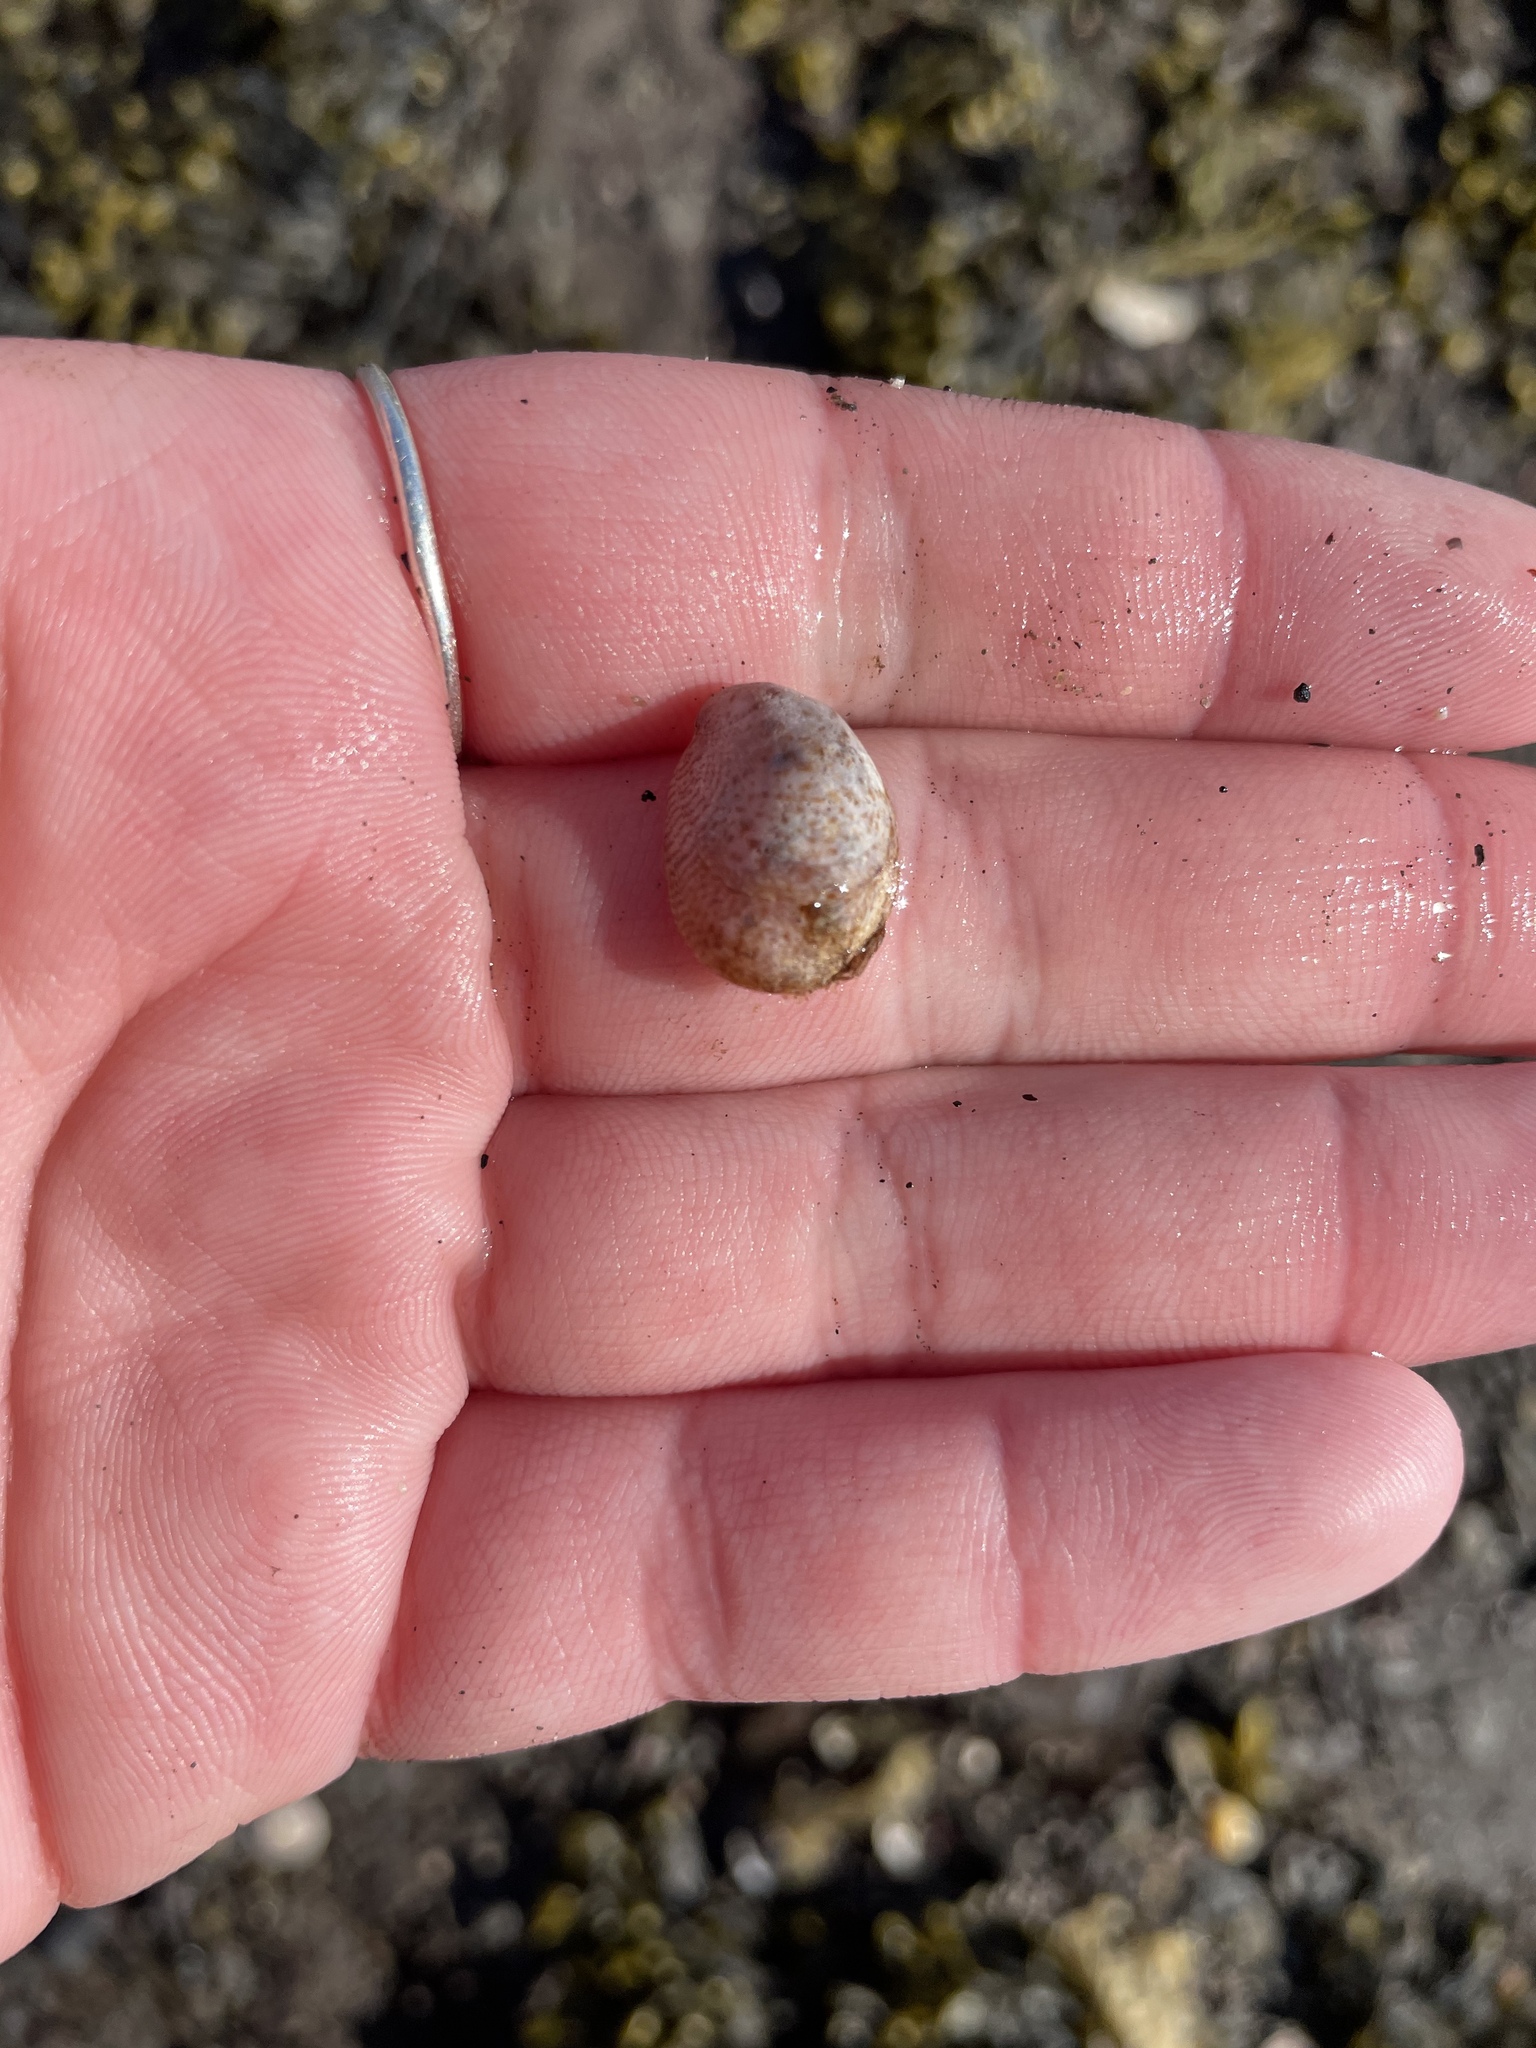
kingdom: Animalia
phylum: Mollusca
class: Gastropoda
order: Littorinimorpha
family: Calyptraeidae
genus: Crepidula
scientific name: Crepidula fornicata
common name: Slipper limpet
